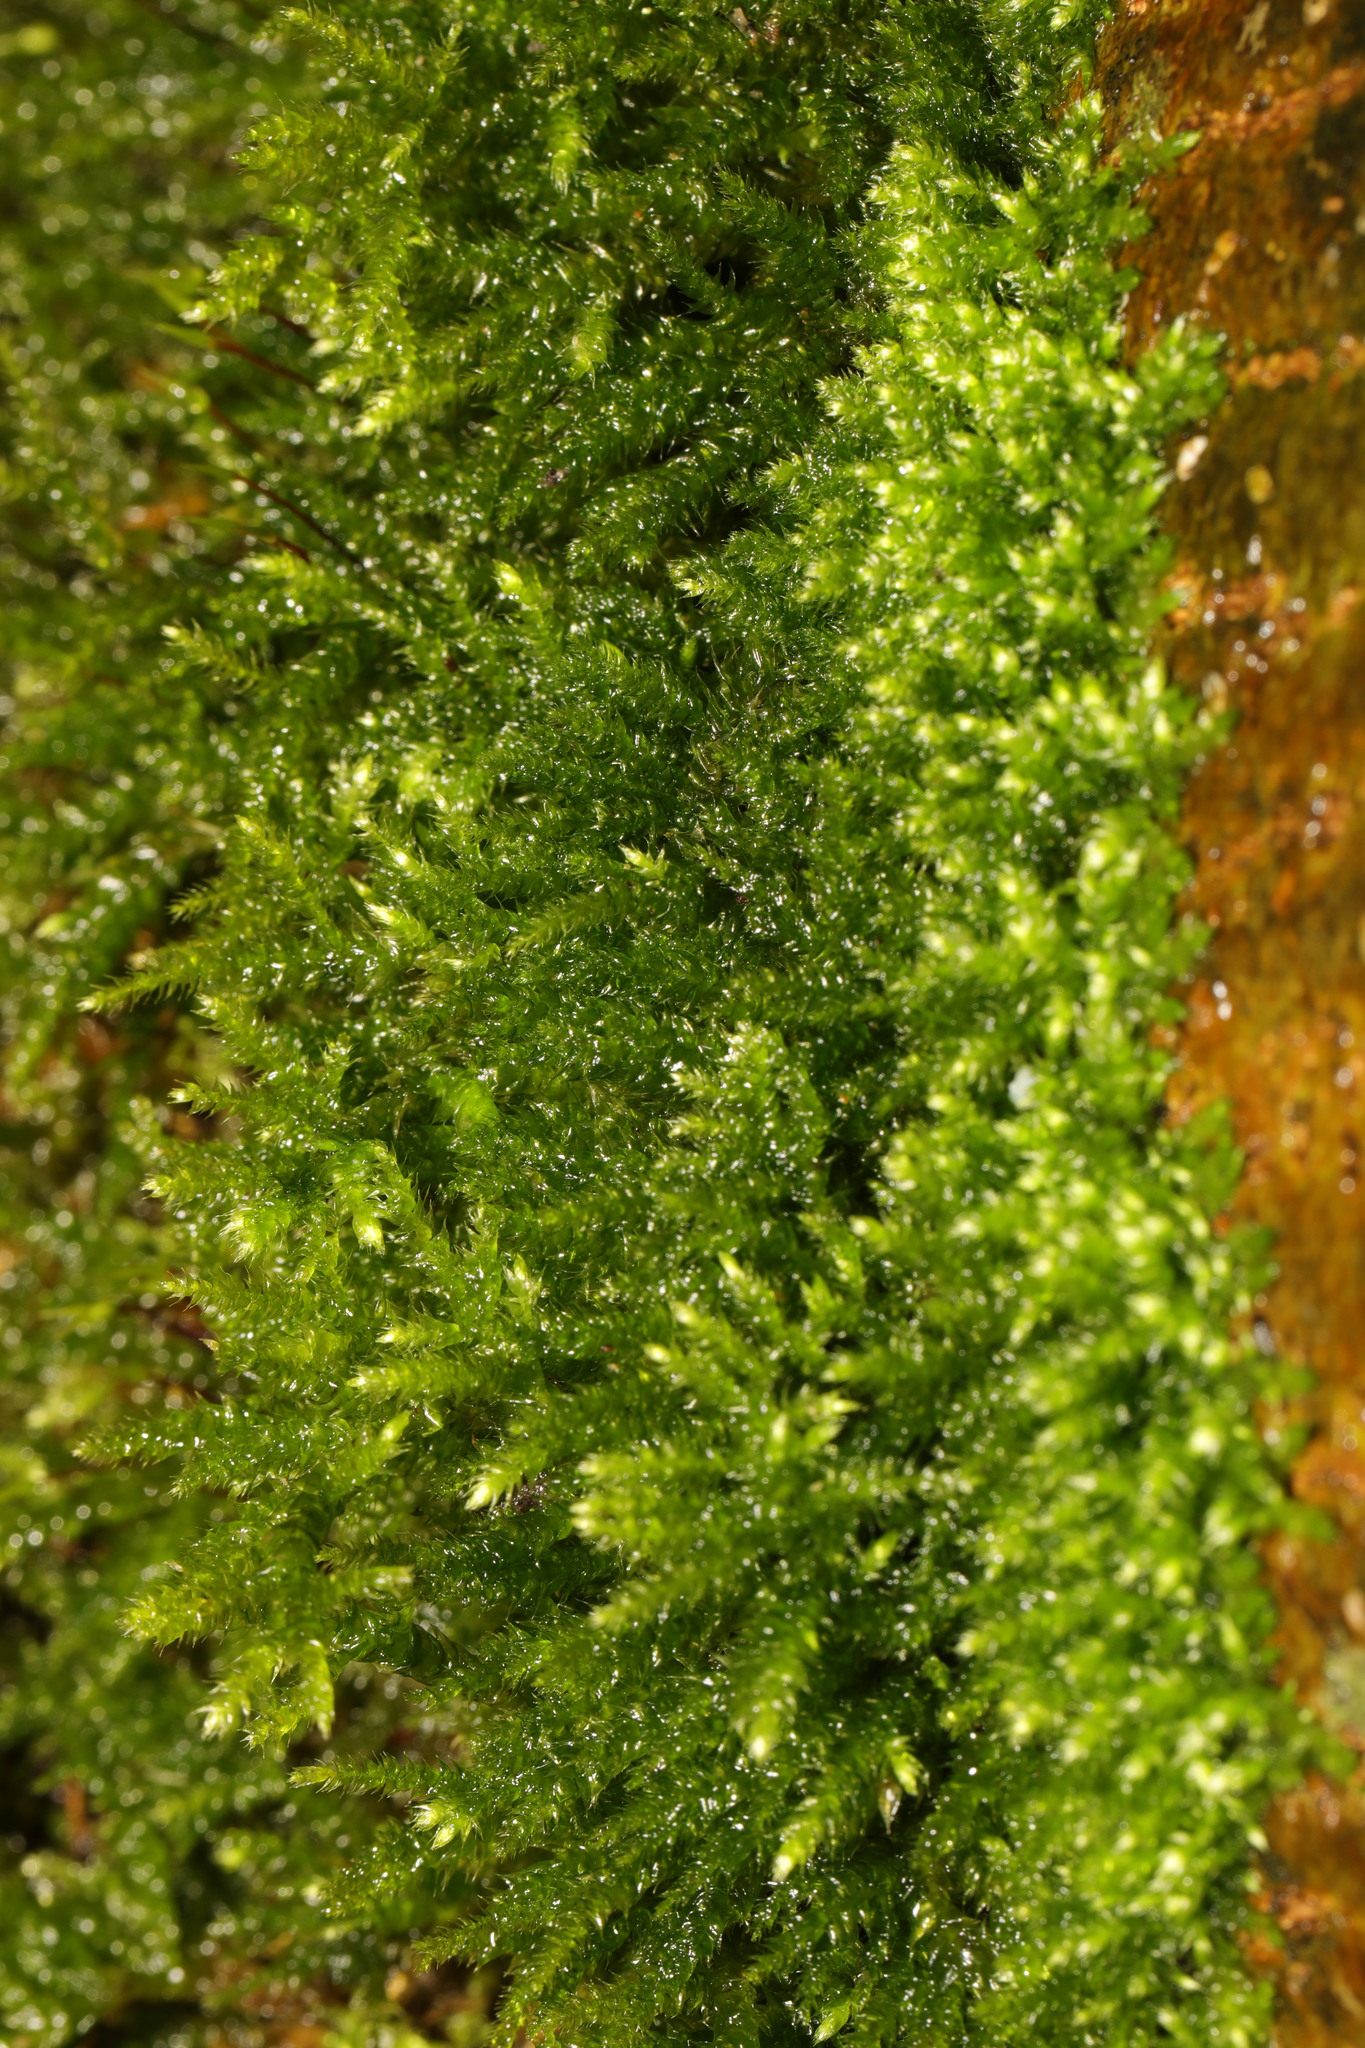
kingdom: Plantae
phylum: Bryophyta
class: Bryopsida
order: Hypnales
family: Hypnaceae
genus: Hypnum
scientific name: Hypnum cupressiforme
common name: Cypress-leaved plait-moss
